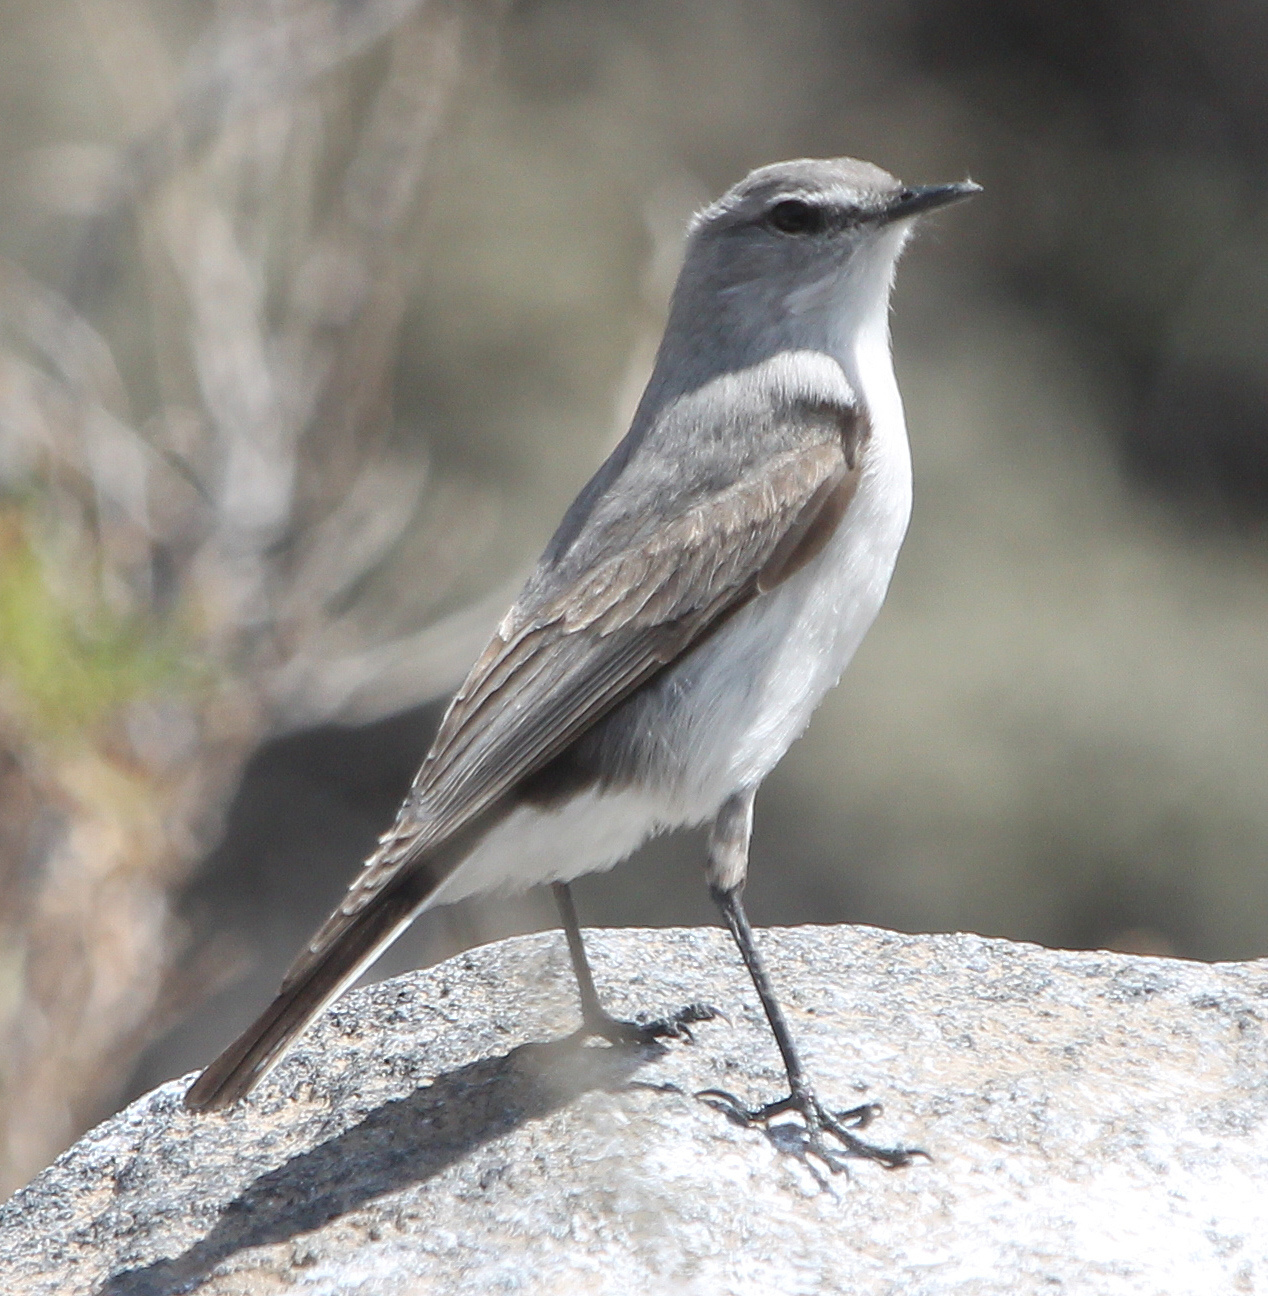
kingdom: Animalia
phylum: Chordata
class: Aves
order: Passeriformes
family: Tyrannidae
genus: Muscisaxicola
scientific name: Muscisaxicola cinereus
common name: Cinereous ground tyrant
